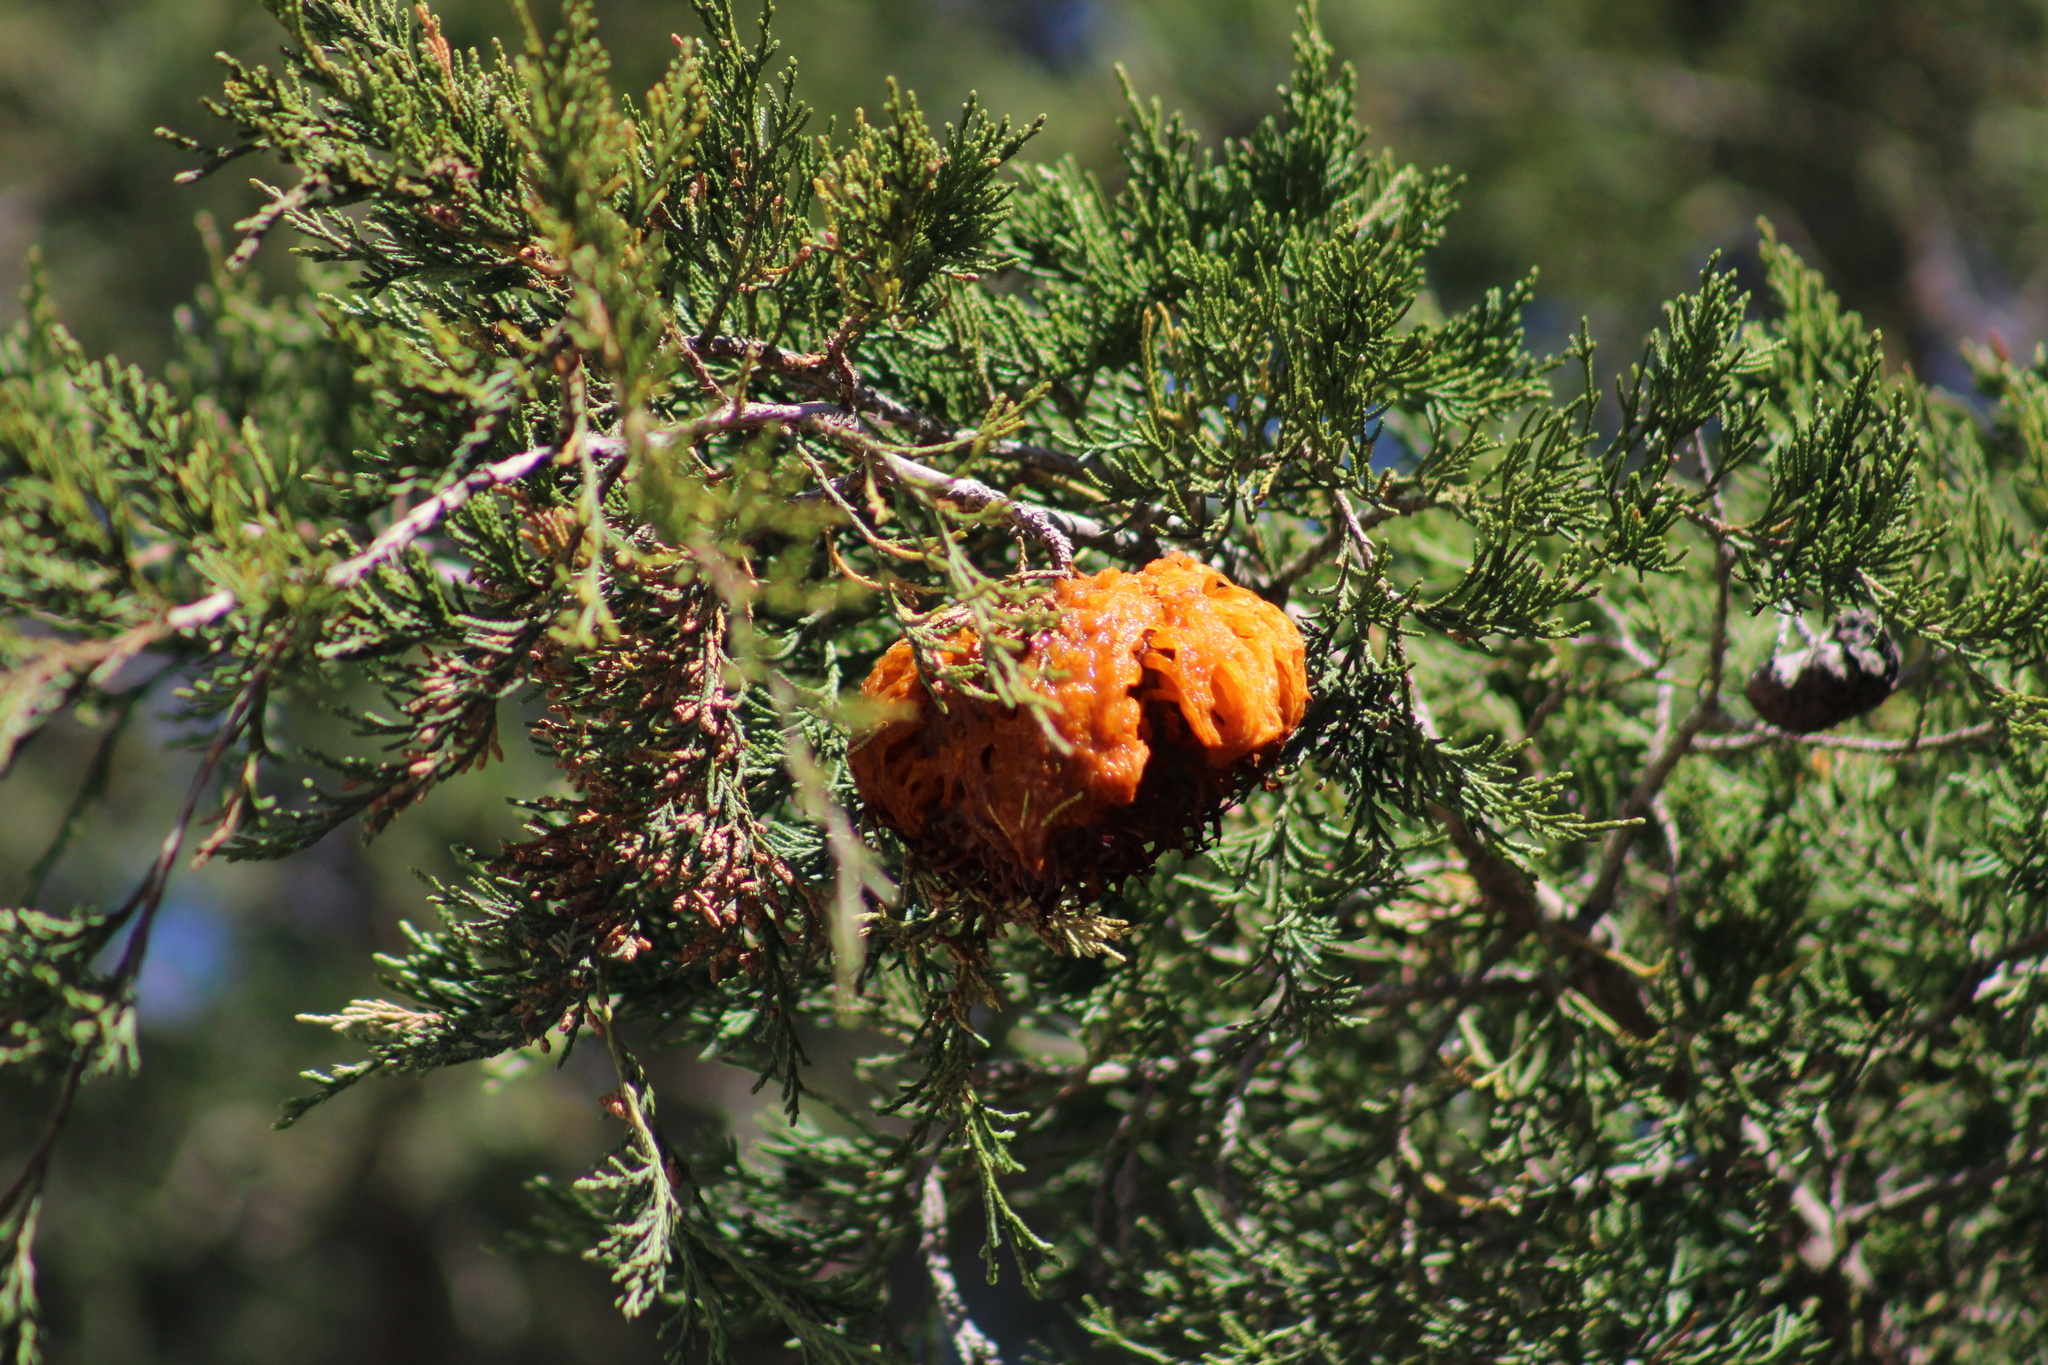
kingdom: Fungi
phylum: Basidiomycota
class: Pucciniomycetes
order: Pucciniales
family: Gymnosporangiaceae
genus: Gymnosporangium
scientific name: Gymnosporangium juniperi-virginianae
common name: Juniper-apple rust
